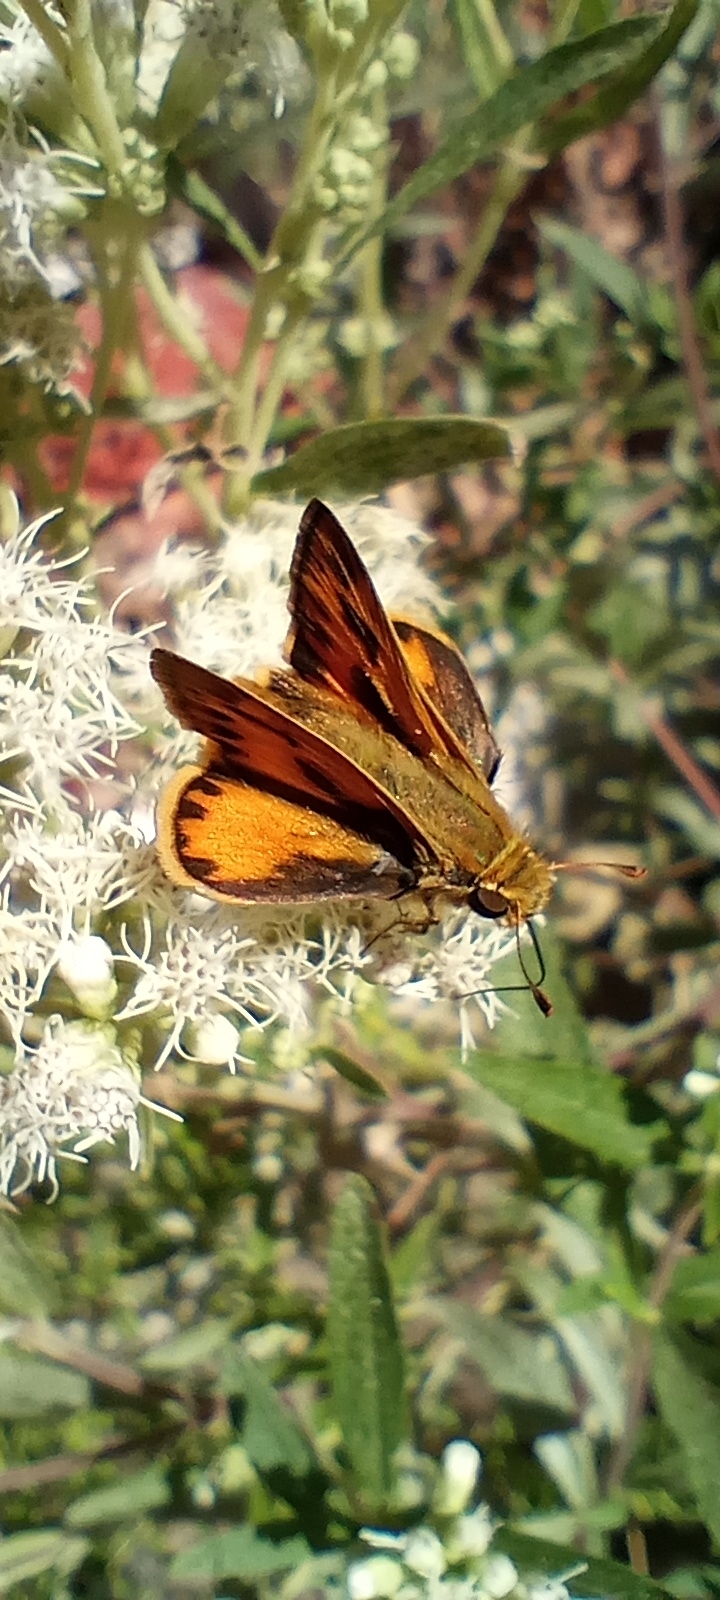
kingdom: Animalia
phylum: Arthropoda
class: Insecta
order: Lepidoptera
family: Hesperiidae
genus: Hylephila
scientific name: Hylephila phyleus
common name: Fiery skipper
